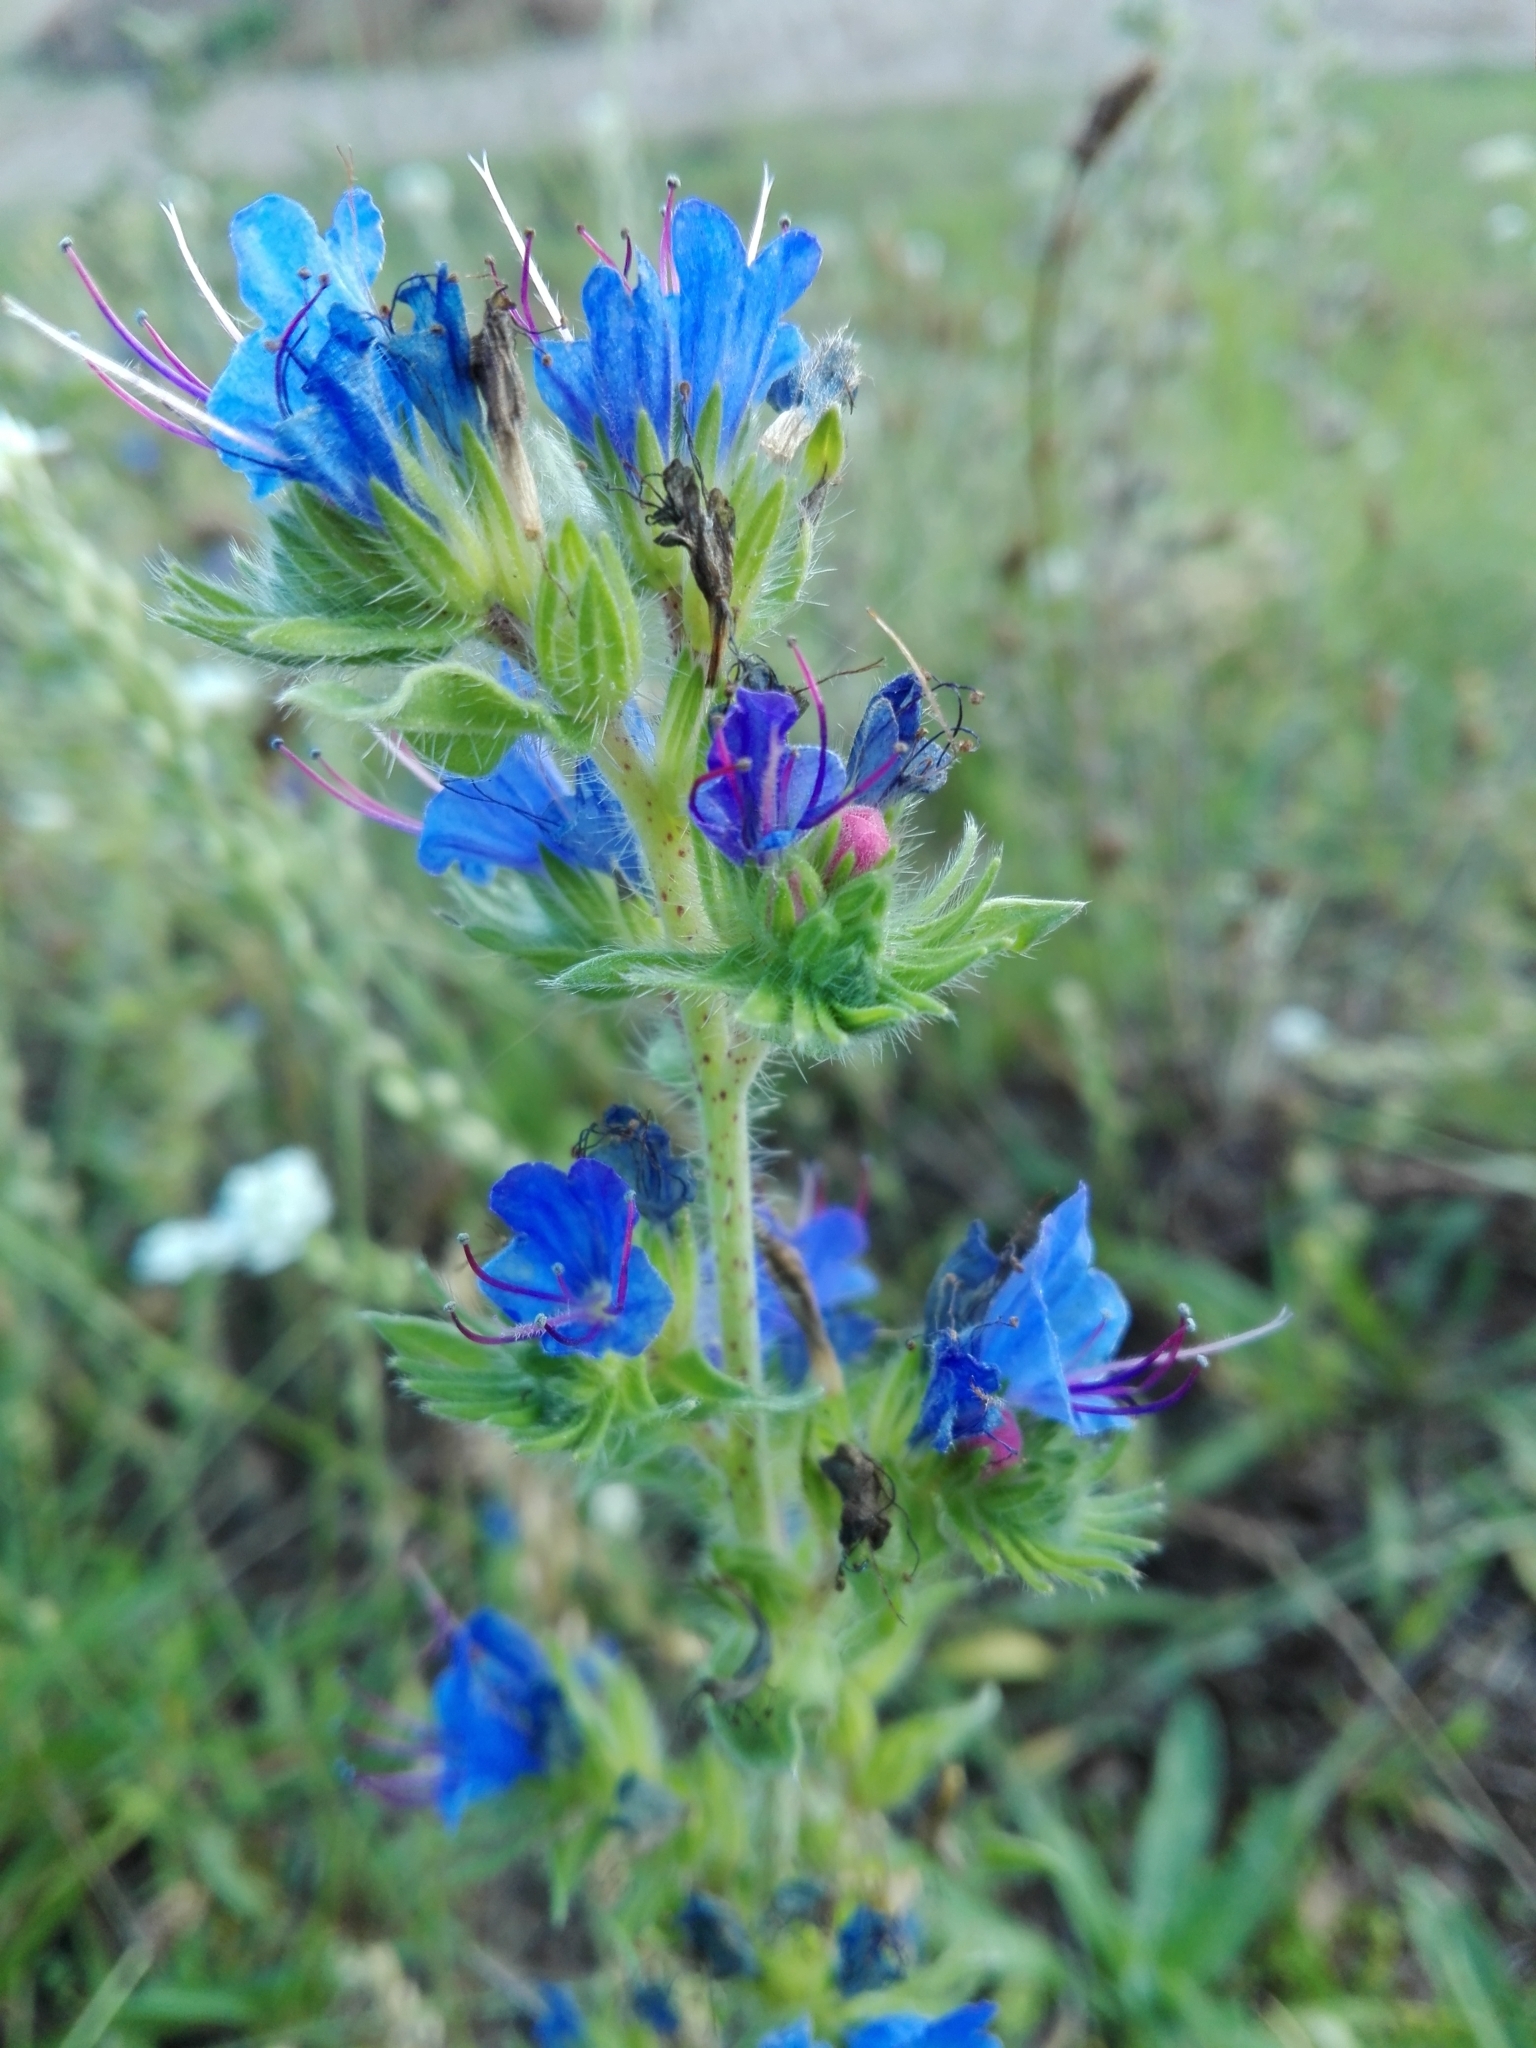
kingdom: Plantae
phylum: Tracheophyta
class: Magnoliopsida
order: Boraginales
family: Boraginaceae
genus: Echium
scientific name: Echium vulgare
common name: Common viper's bugloss
